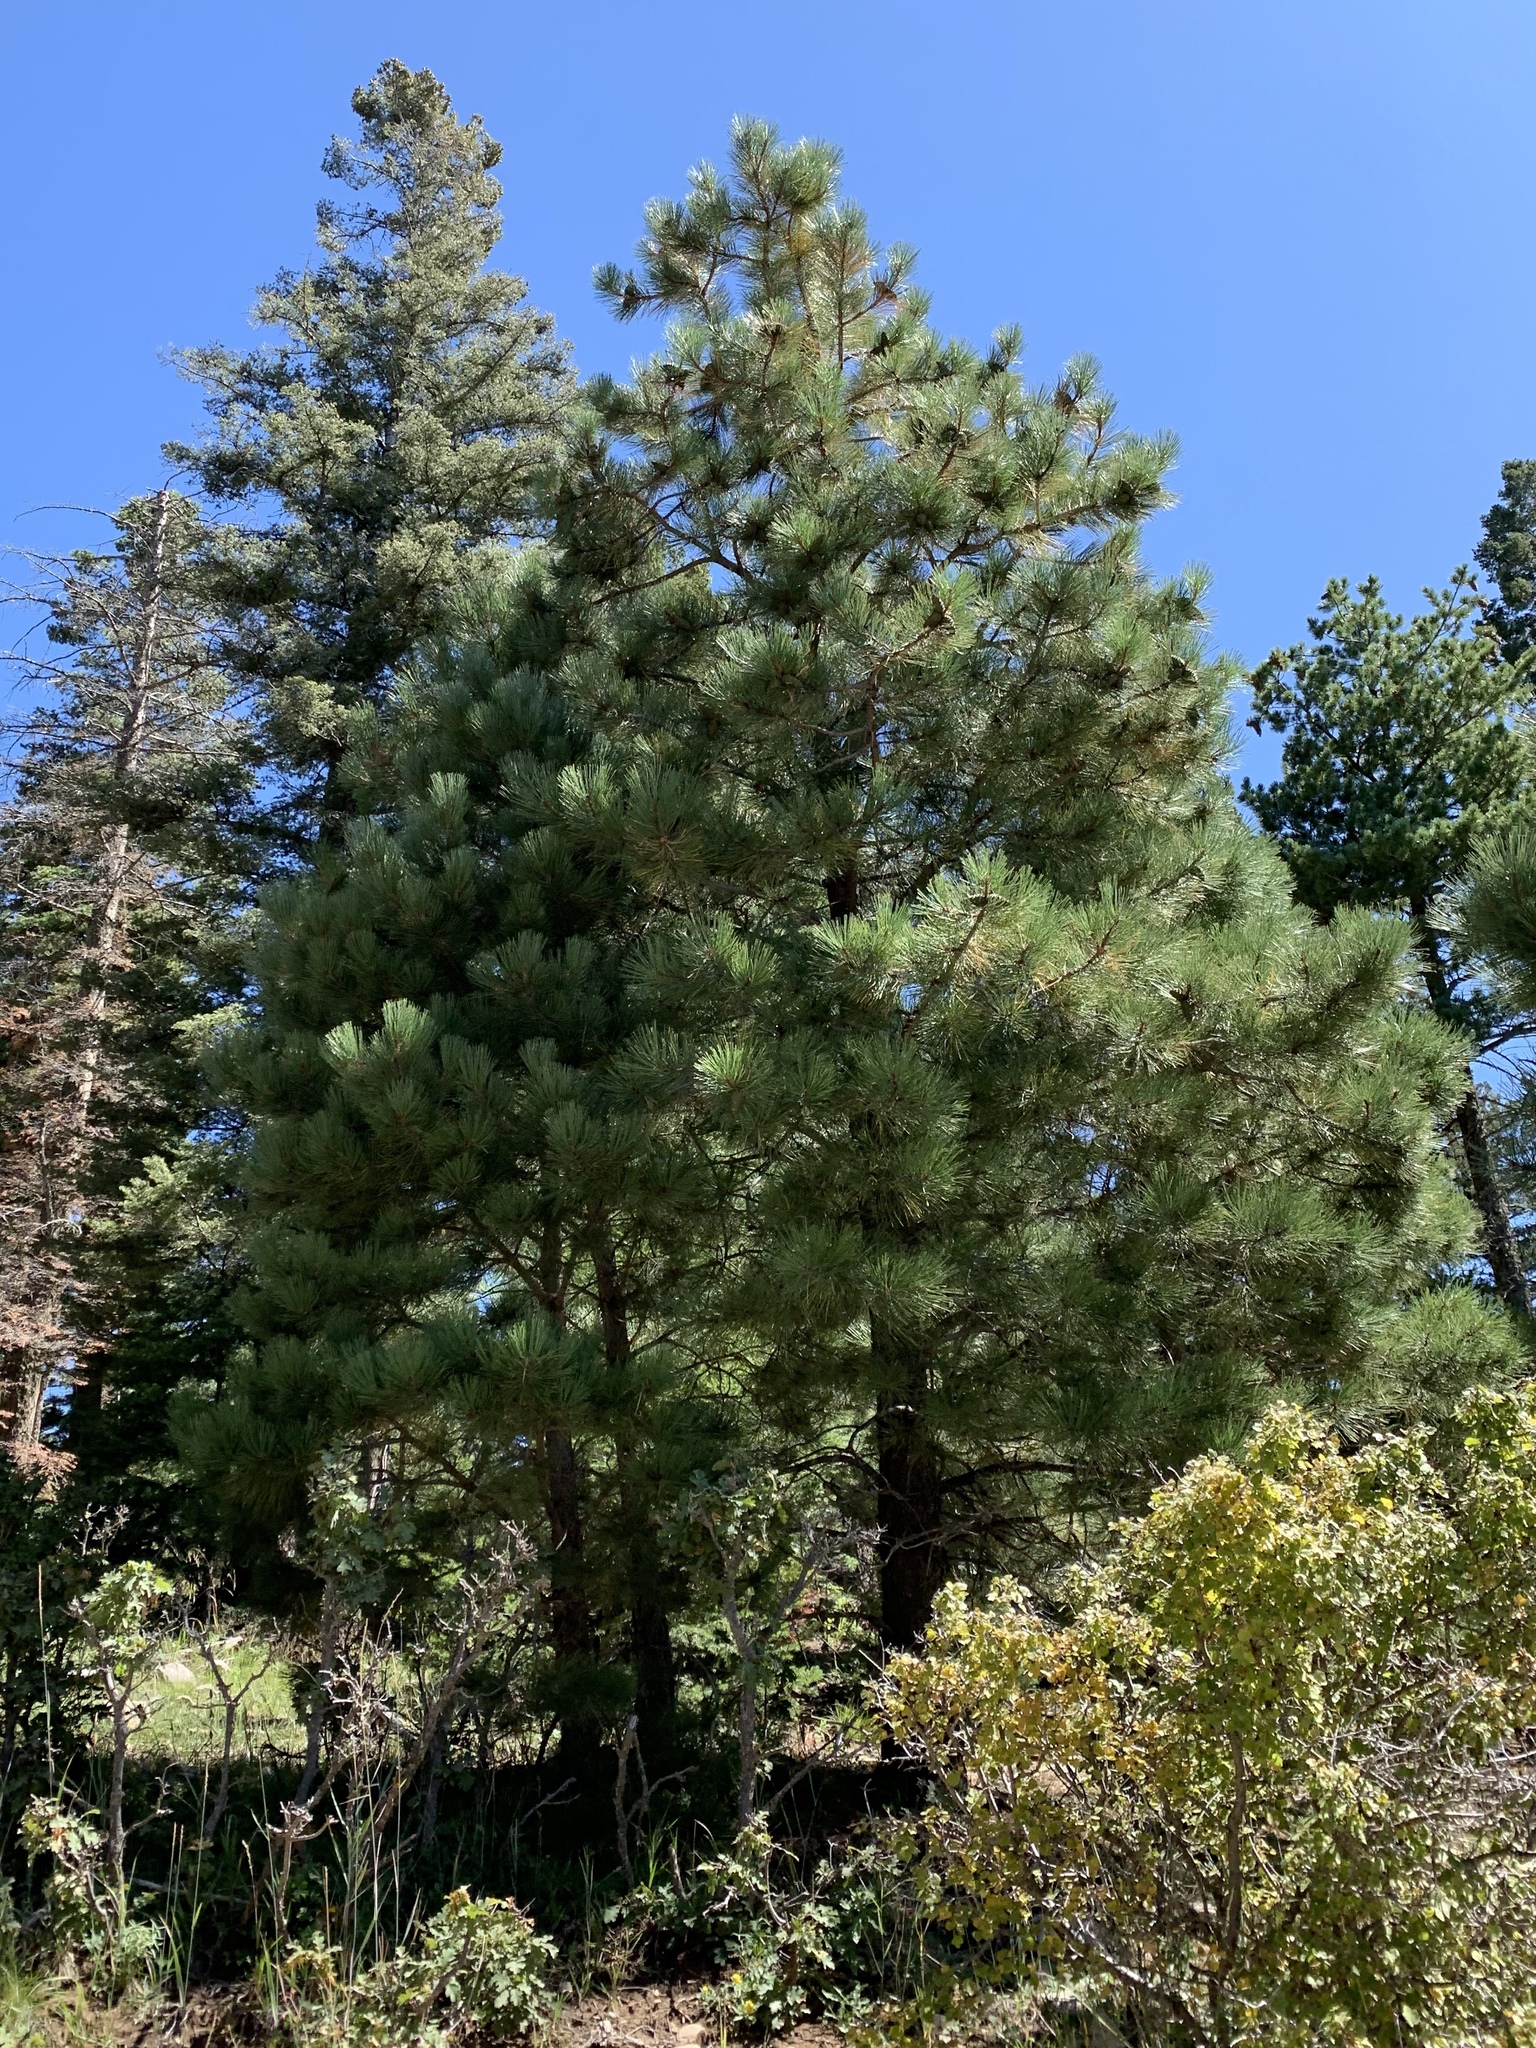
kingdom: Plantae
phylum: Tracheophyta
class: Pinopsida
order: Pinales
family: Pinaceae
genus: Pinus
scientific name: Pinus ponderosa
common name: Western yellow-pine
